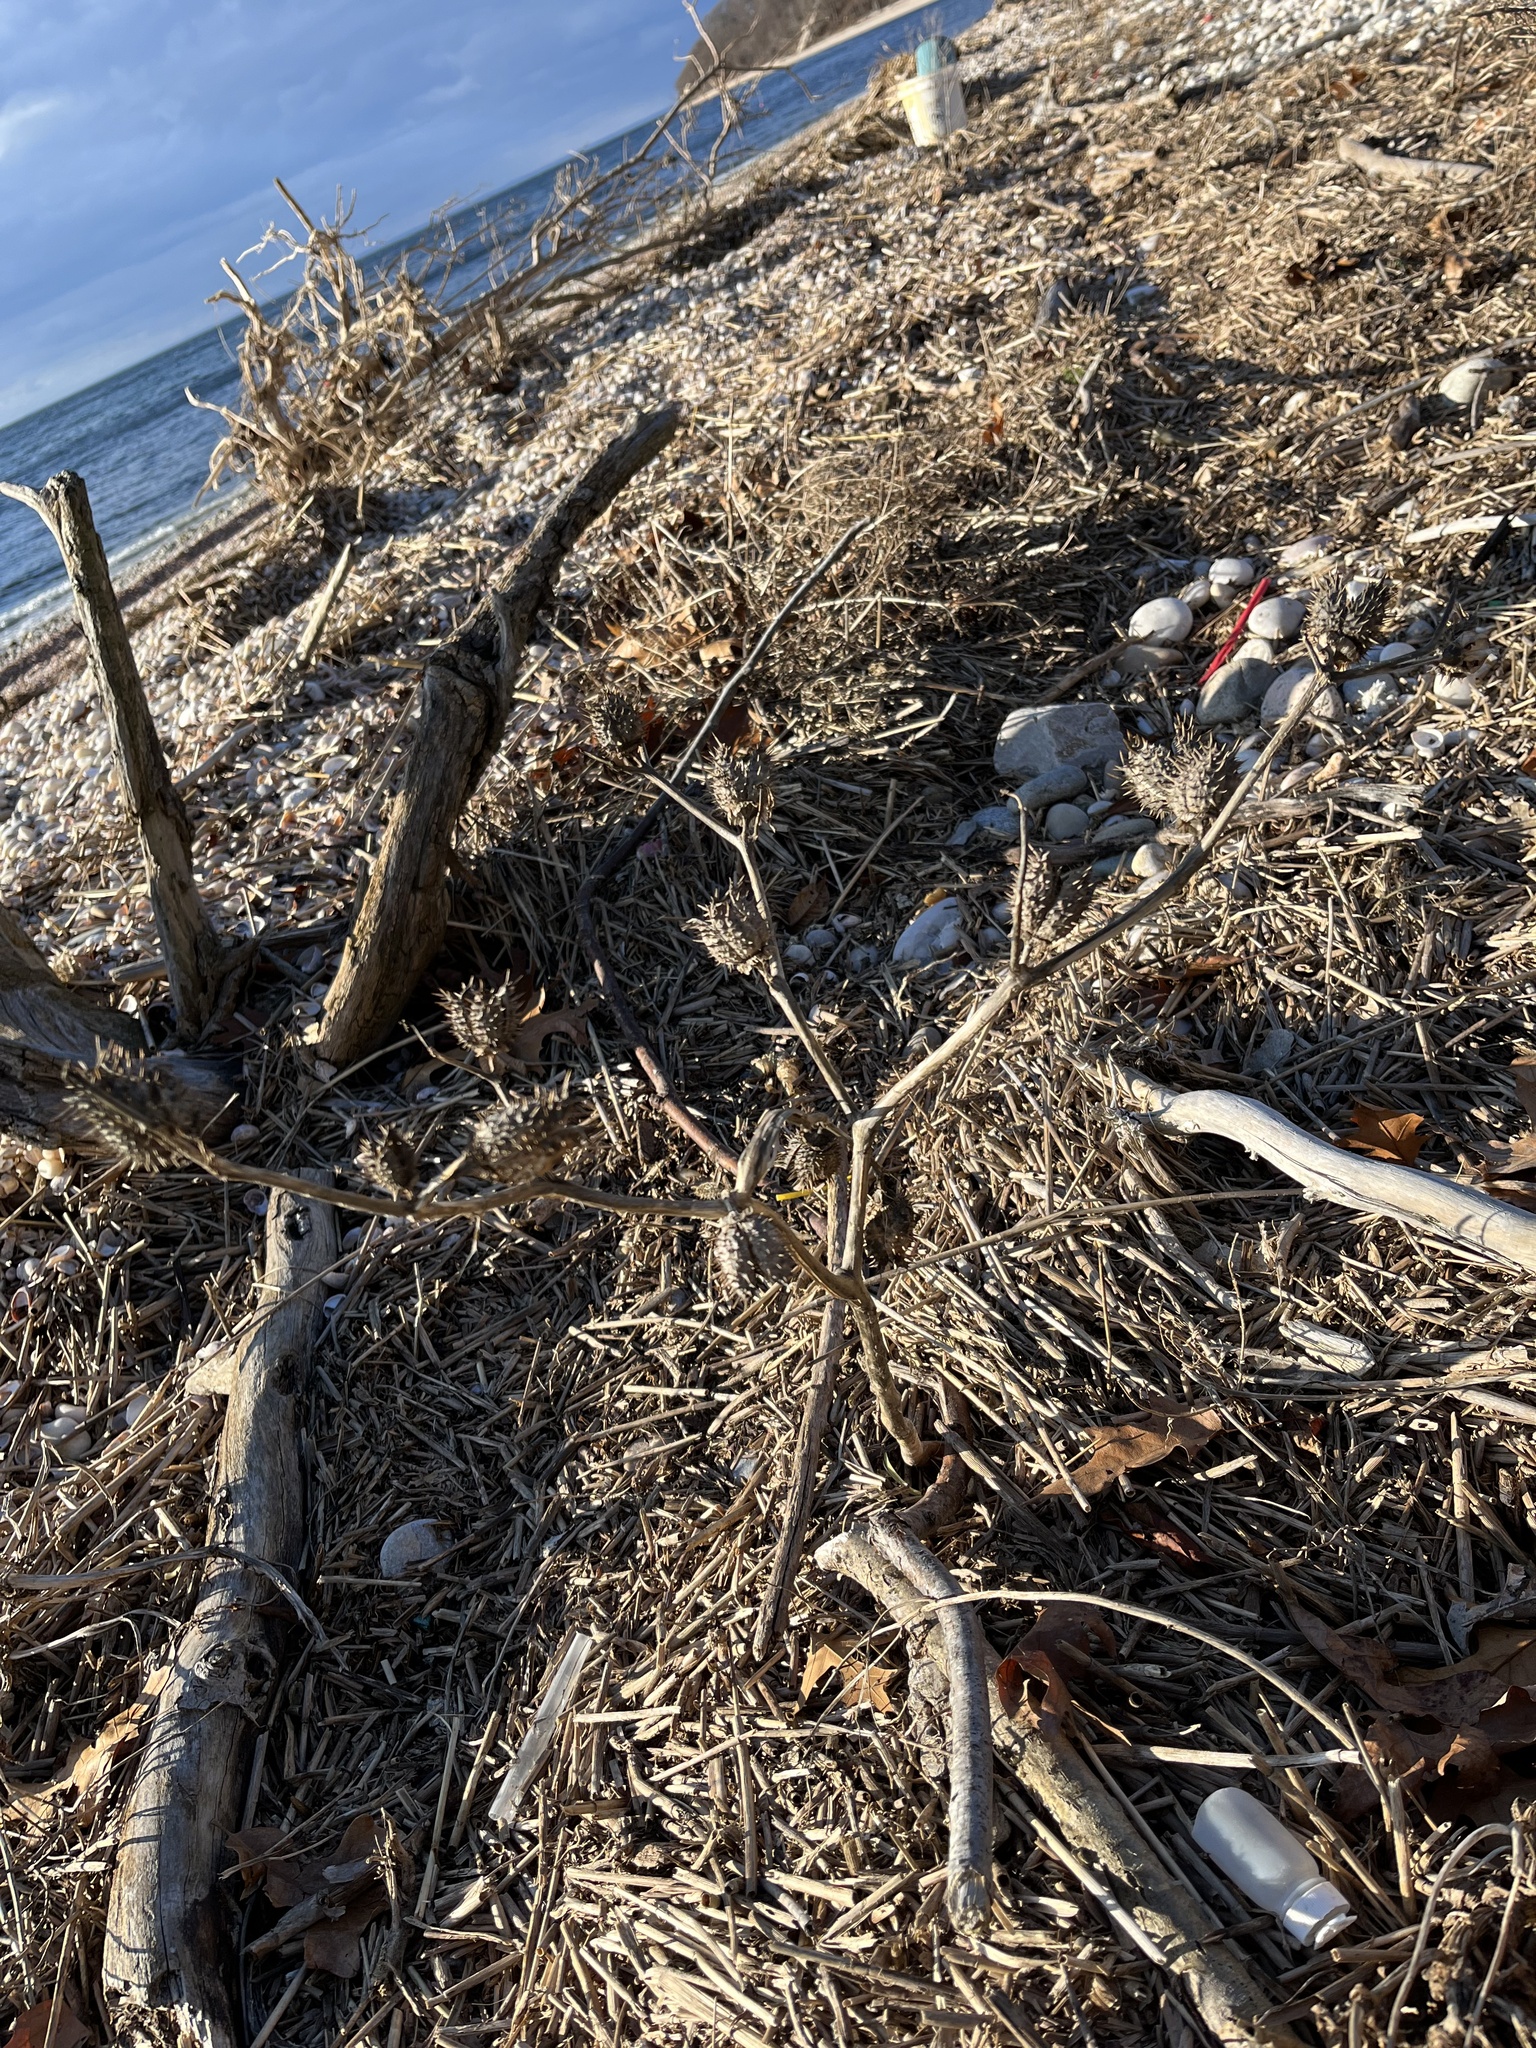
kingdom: Plantae
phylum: Tracheophyta
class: Magnoliopsida
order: Solanales
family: Solanaceae
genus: Datura
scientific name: Datura stramonium
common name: Thorn-apple
